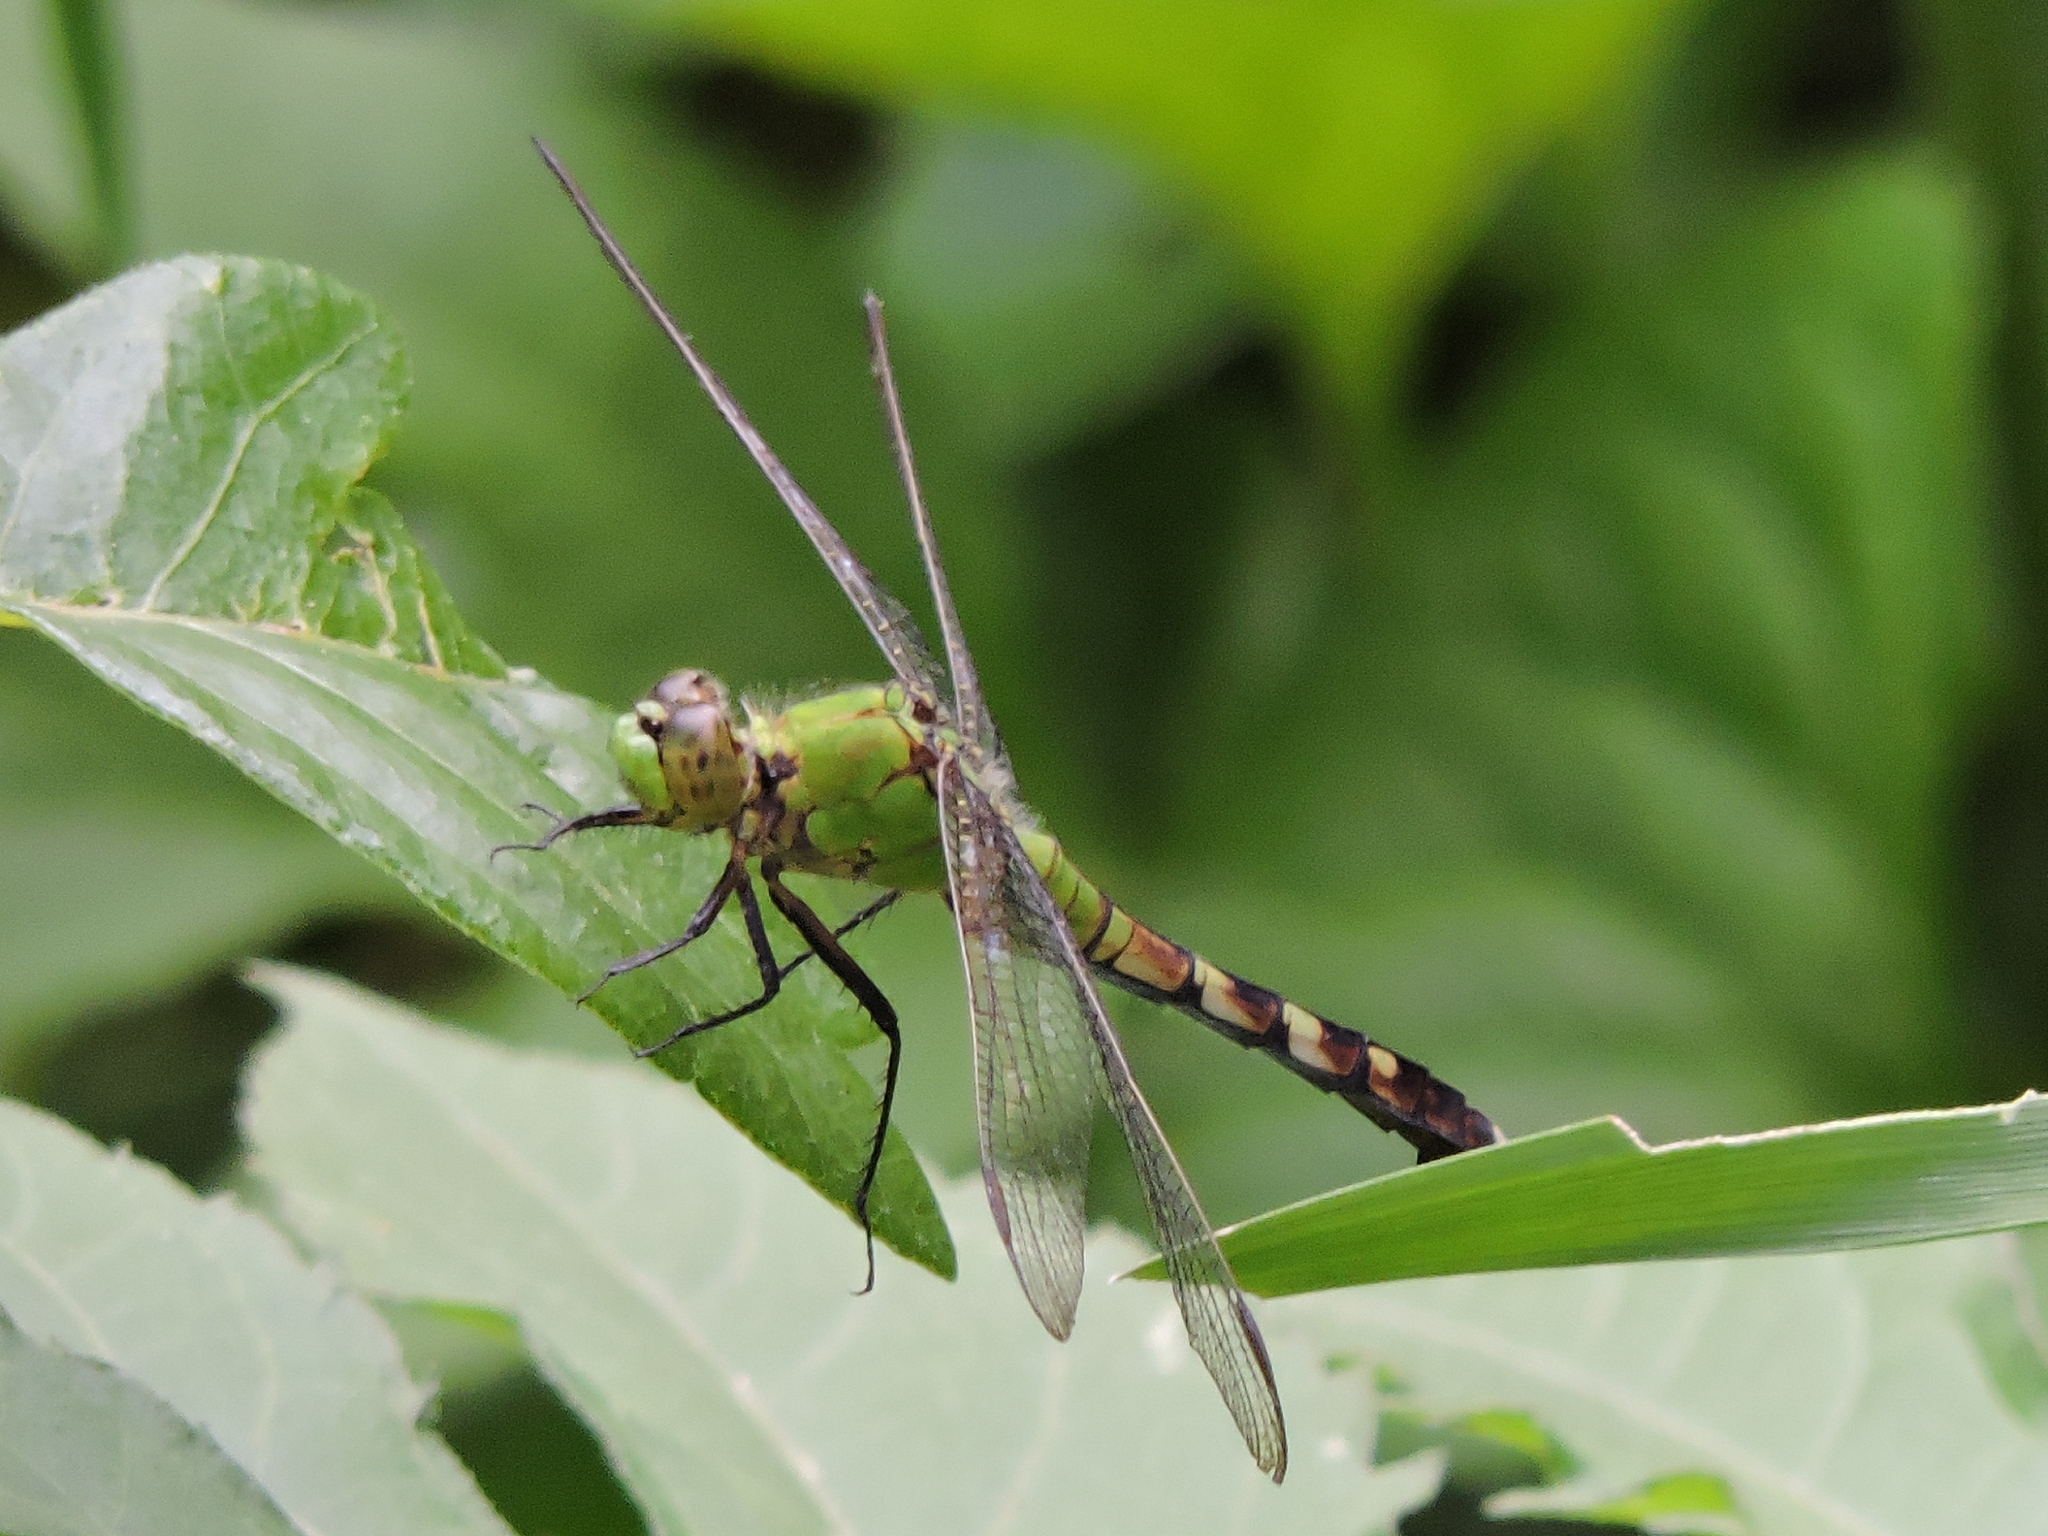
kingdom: Animalia
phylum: Arthropoda
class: Insecta
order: Odonata
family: Libellulidae
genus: Erythemis
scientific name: Erythemis simplicicollis
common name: Eastern pondhawk
